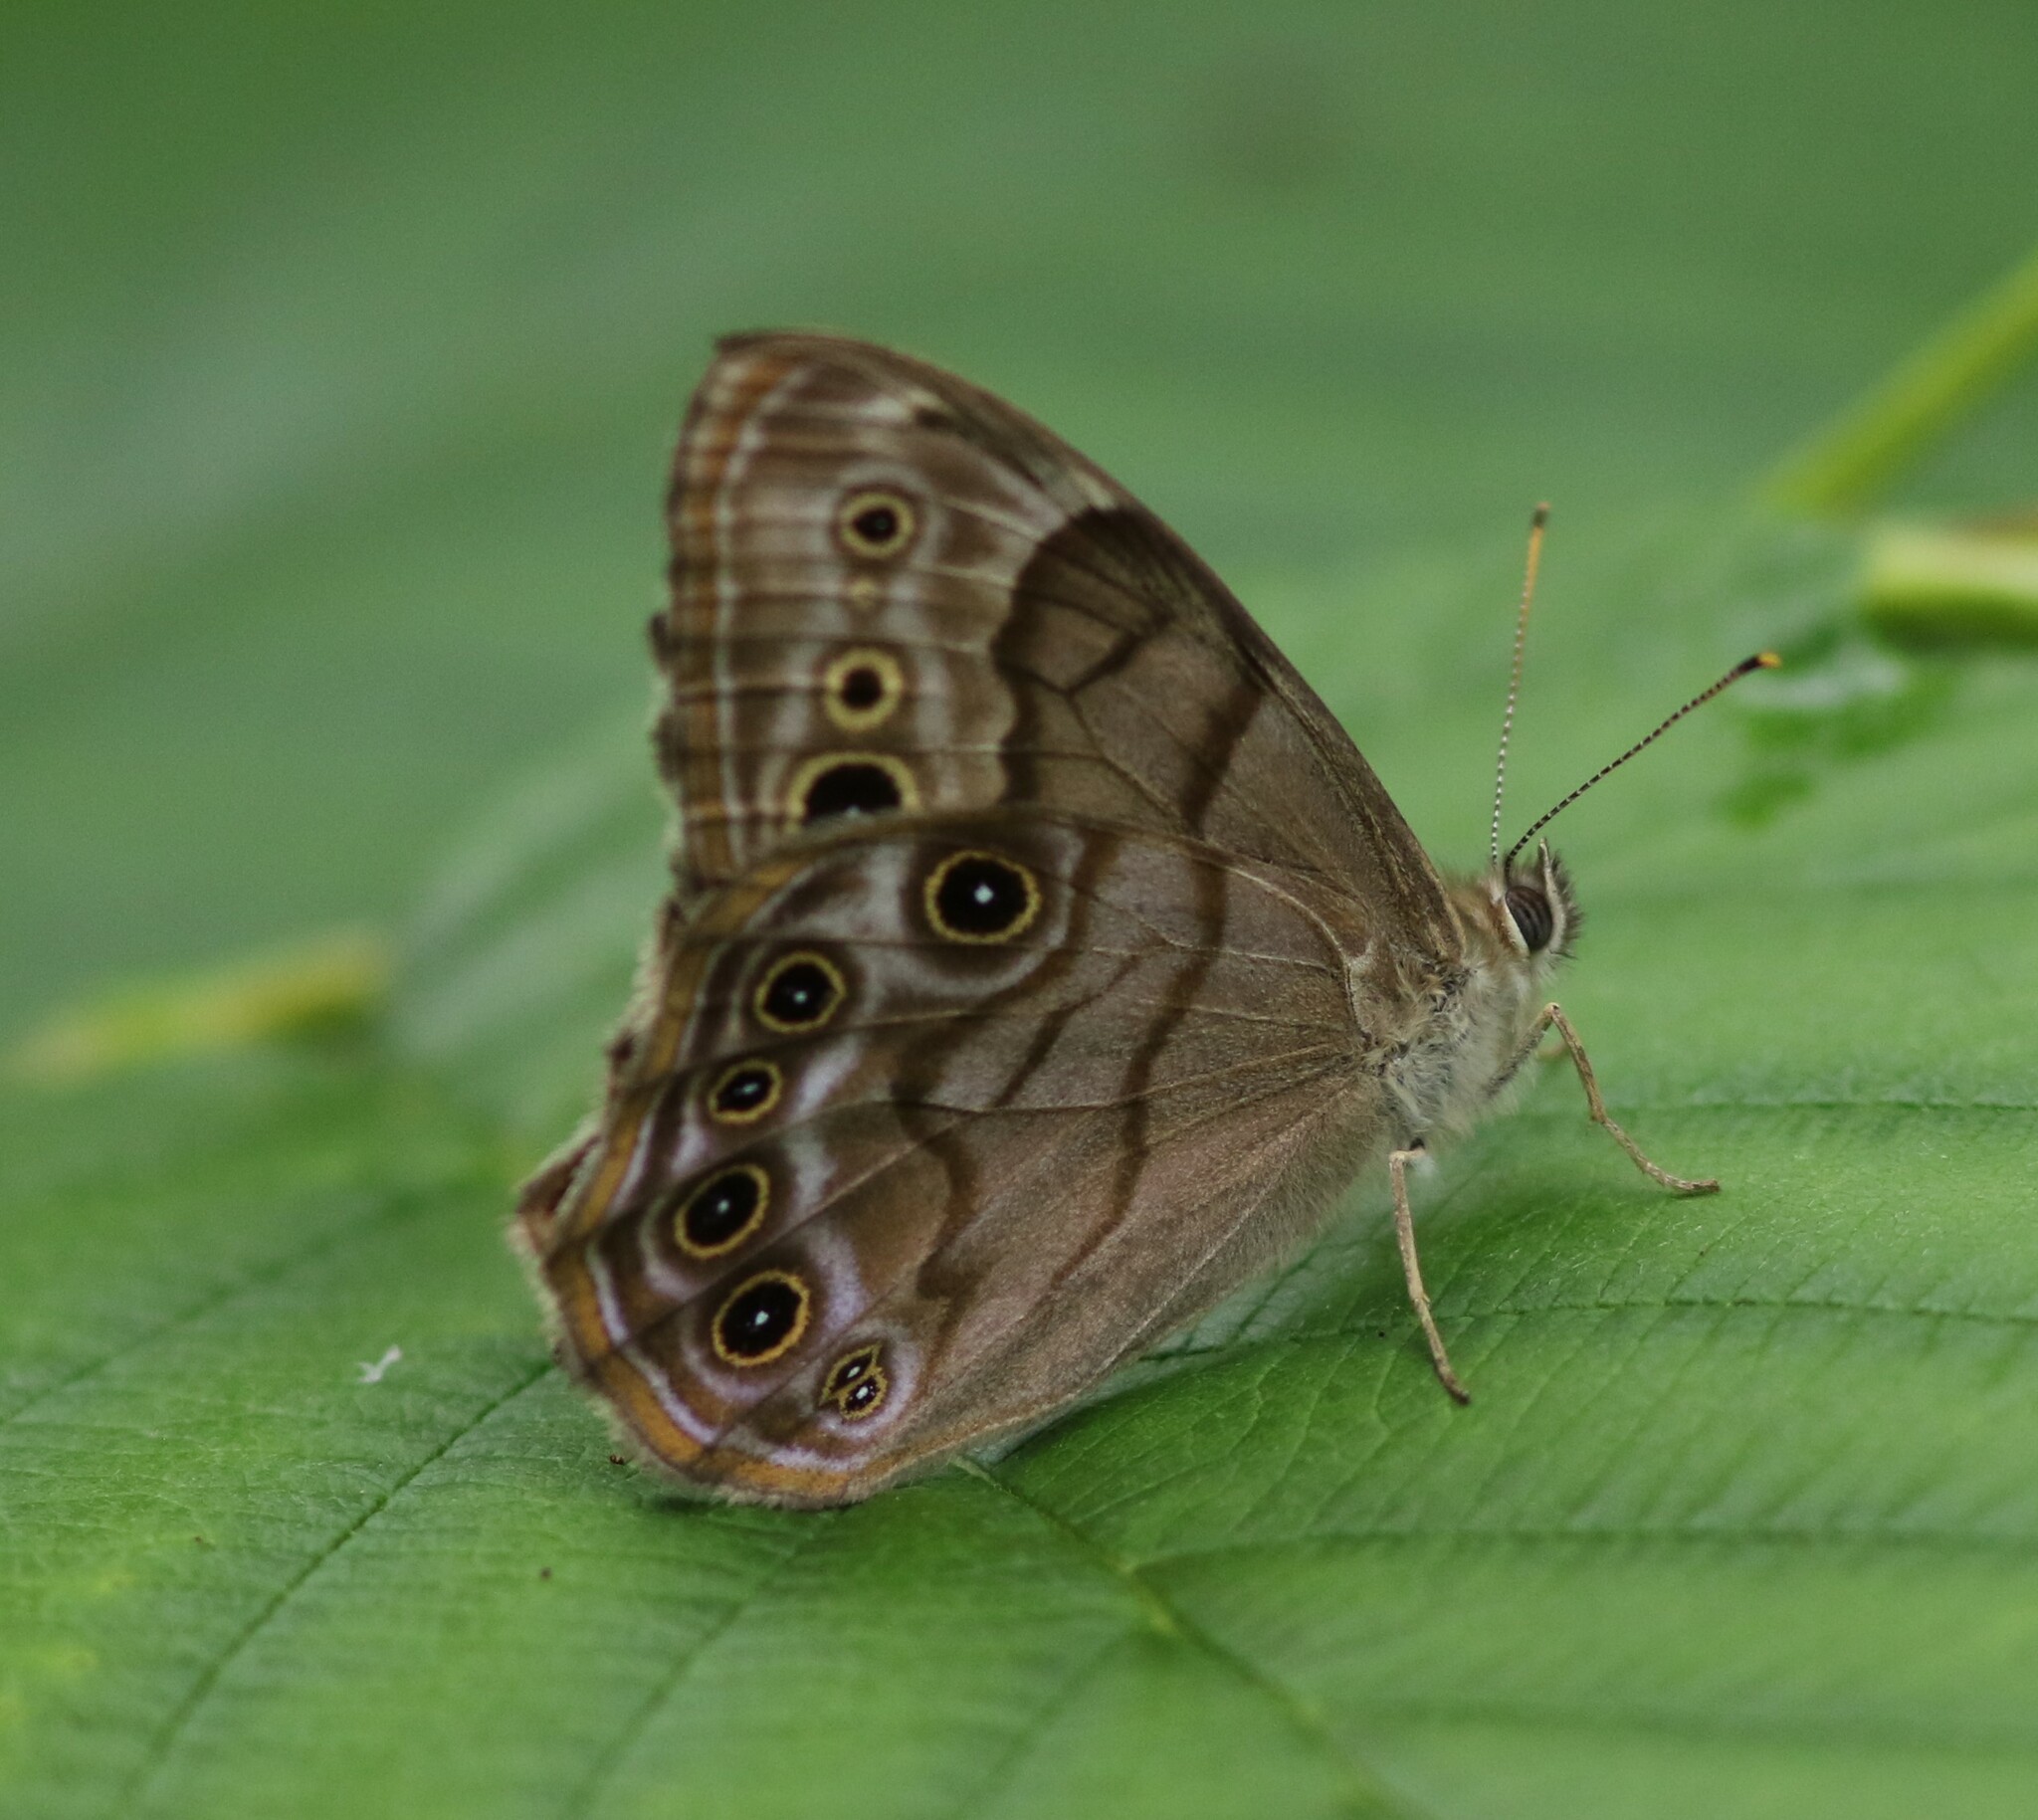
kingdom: Animalia
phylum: Arthropoda
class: Insecta
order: Lepidoptera
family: Nymphalidae
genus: Lethe
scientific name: Lethe anthedon
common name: Northern pearly-eye
